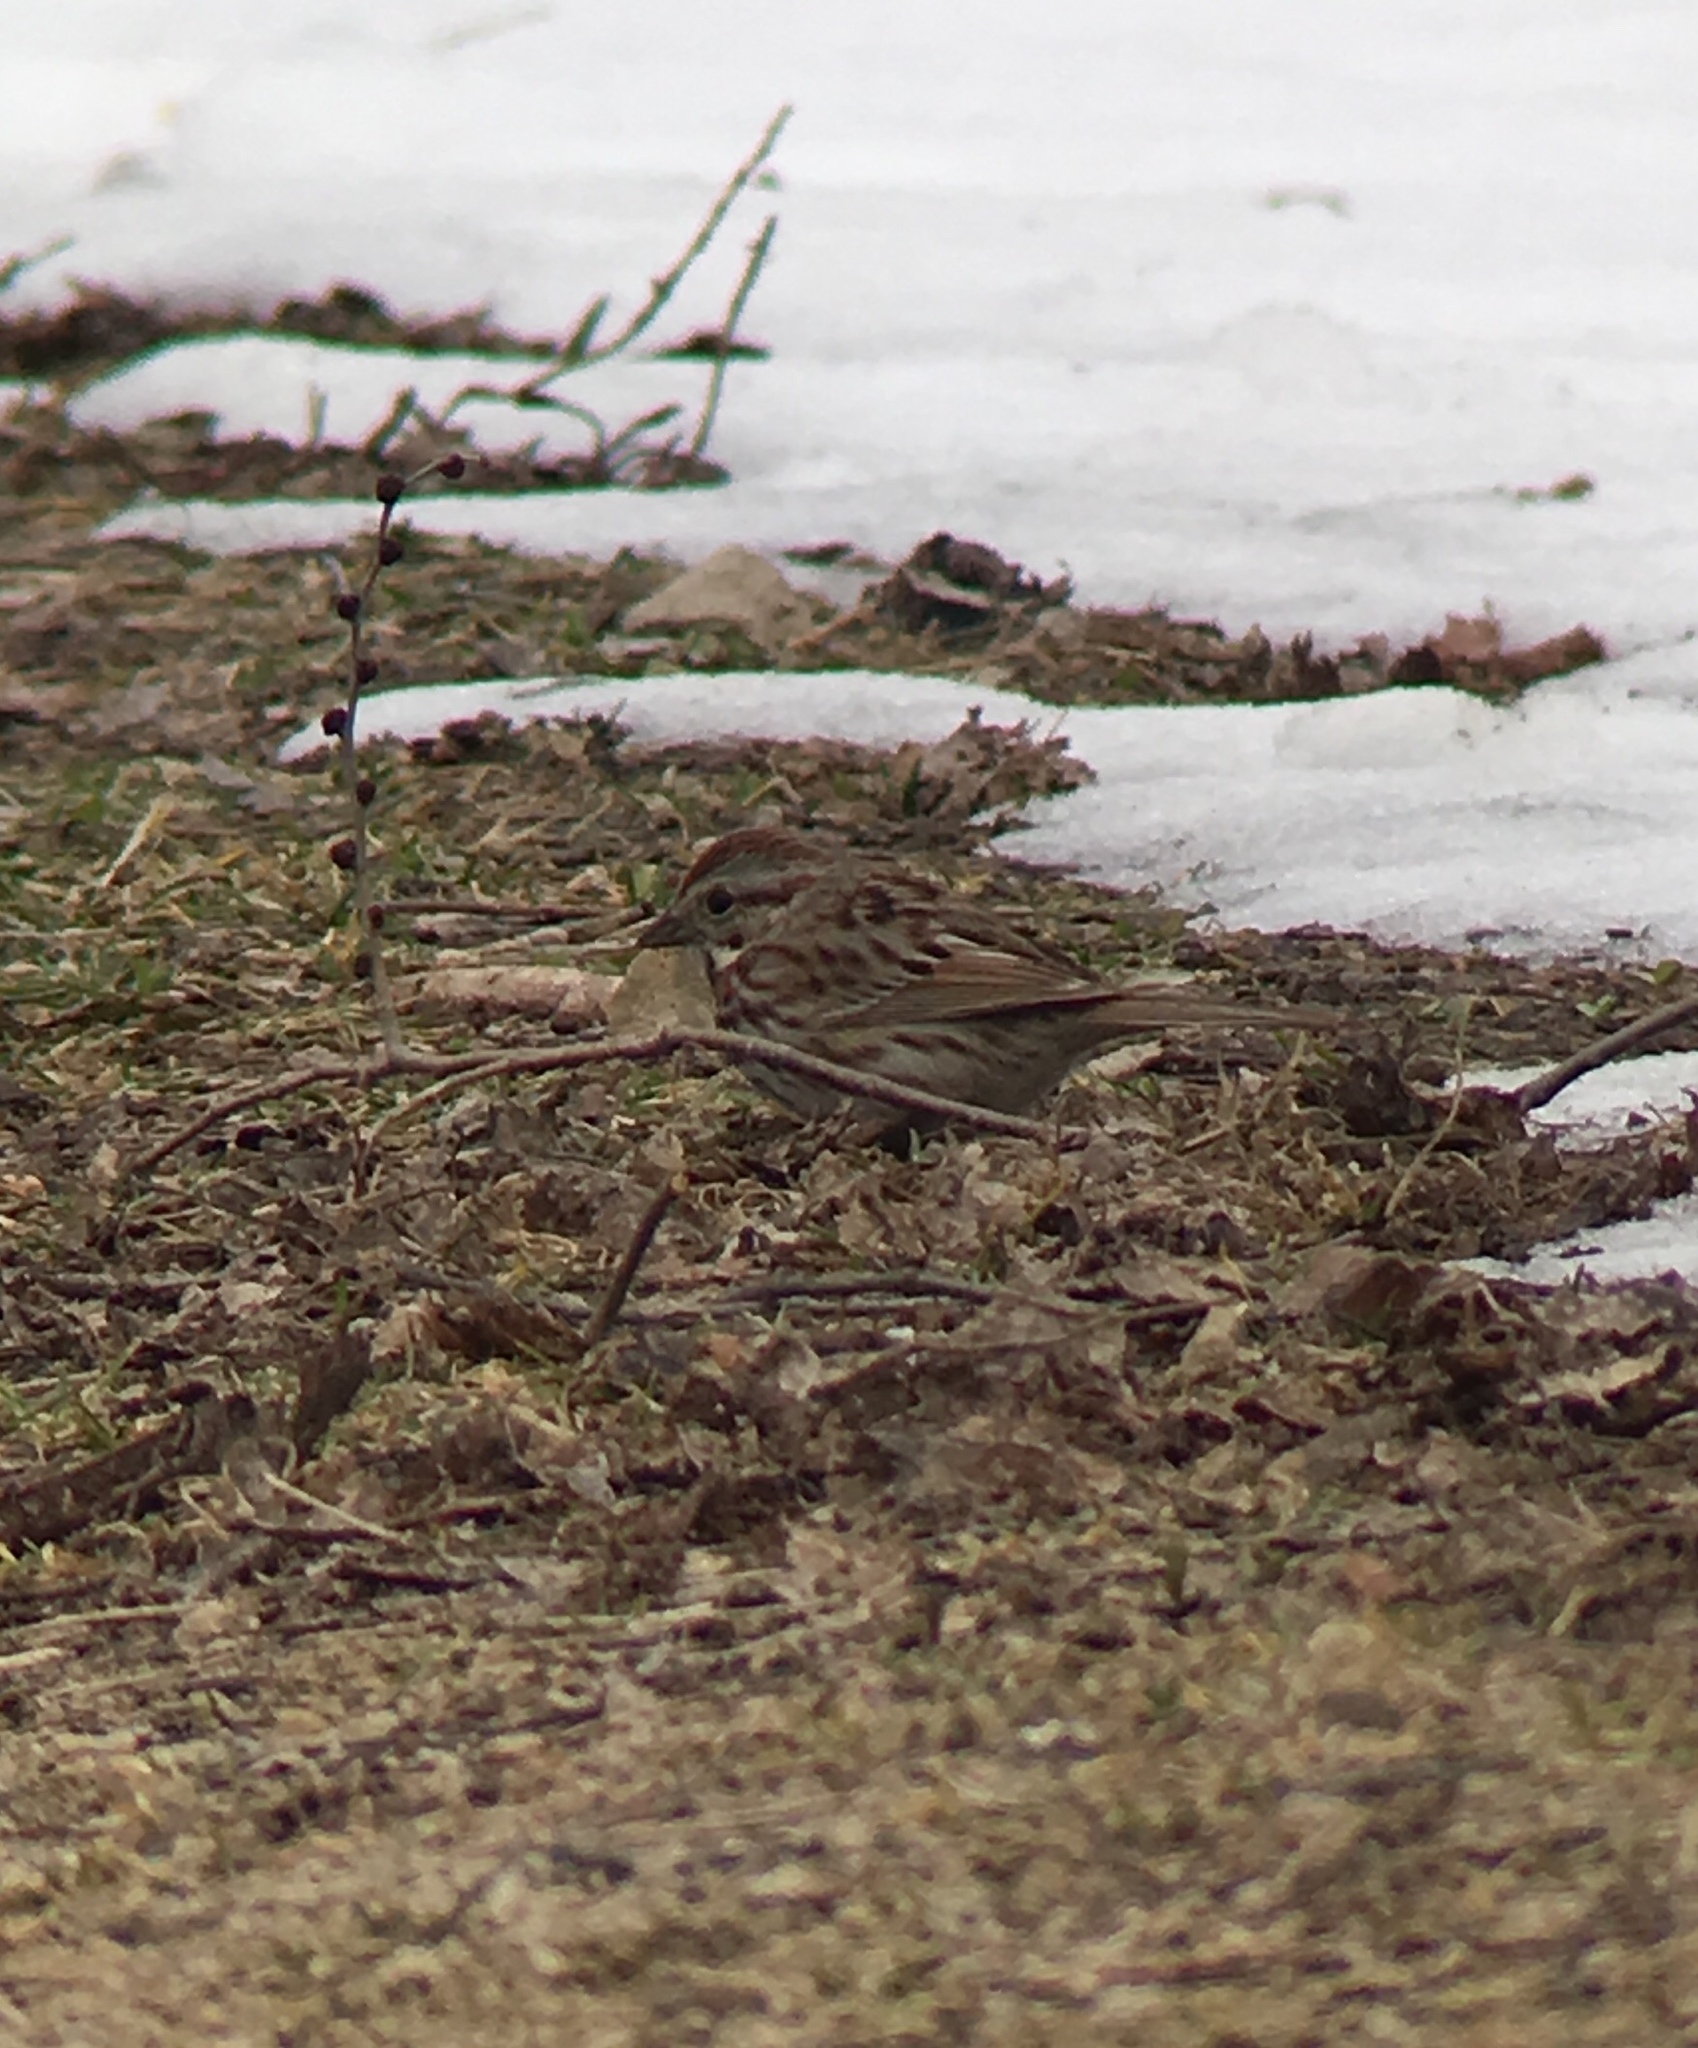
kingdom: Animalia
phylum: Chordata
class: Aves
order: Passeriformes
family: Passerellidae
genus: Melospiza
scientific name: Melospiza melodia
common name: Song sparrow
